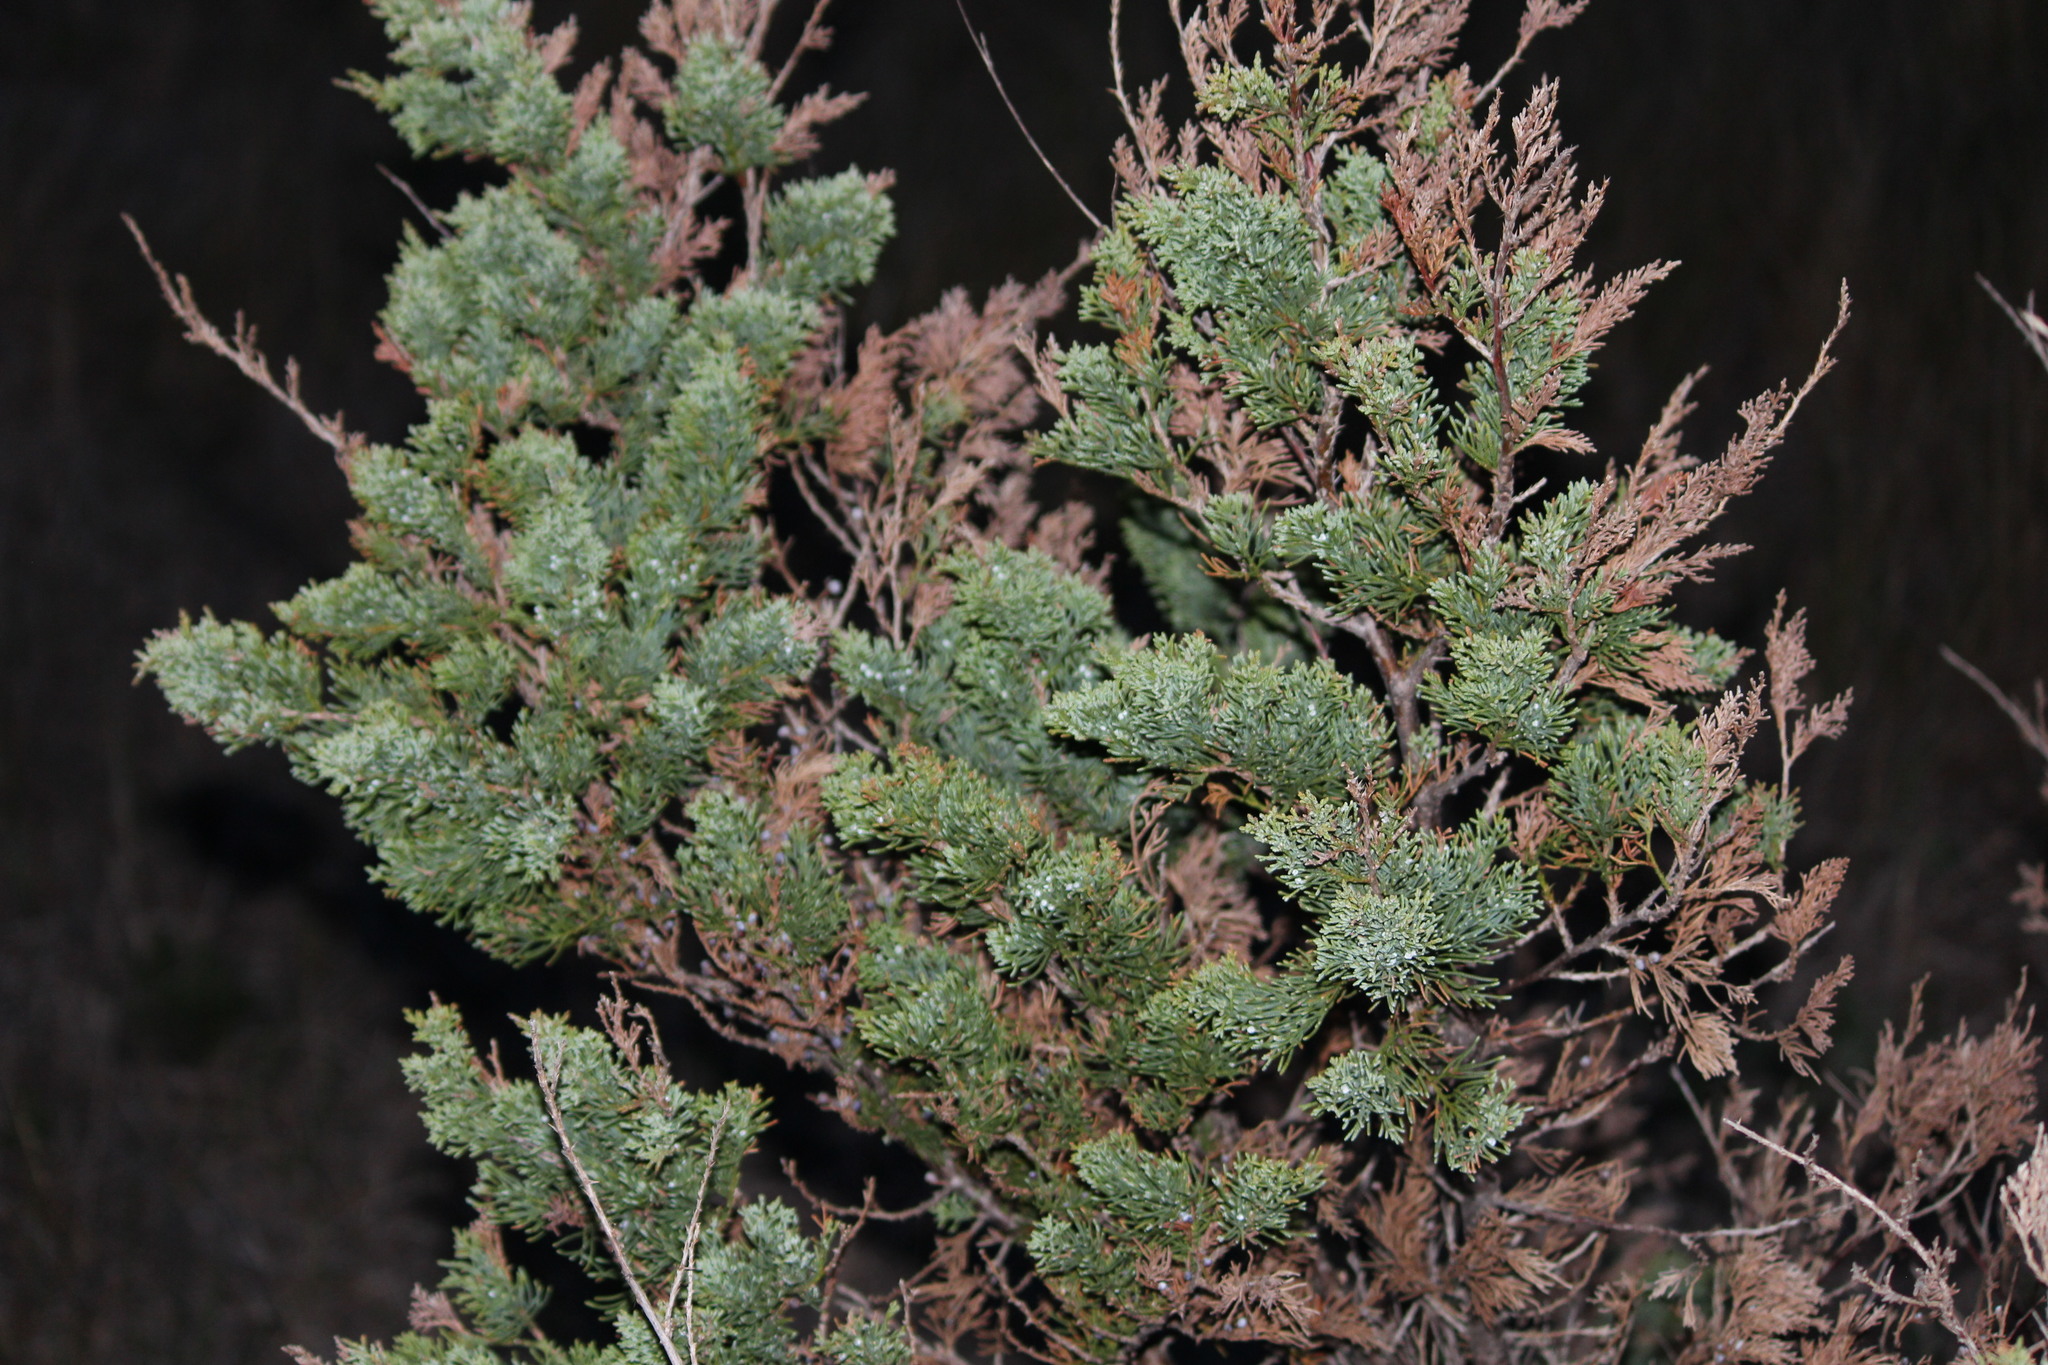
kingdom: Plantae
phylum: Tracheophyta
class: Pinopsida
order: Pinales
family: Cupressaceae
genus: Juniperus
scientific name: Juniperus virginiana
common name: Red juniper
